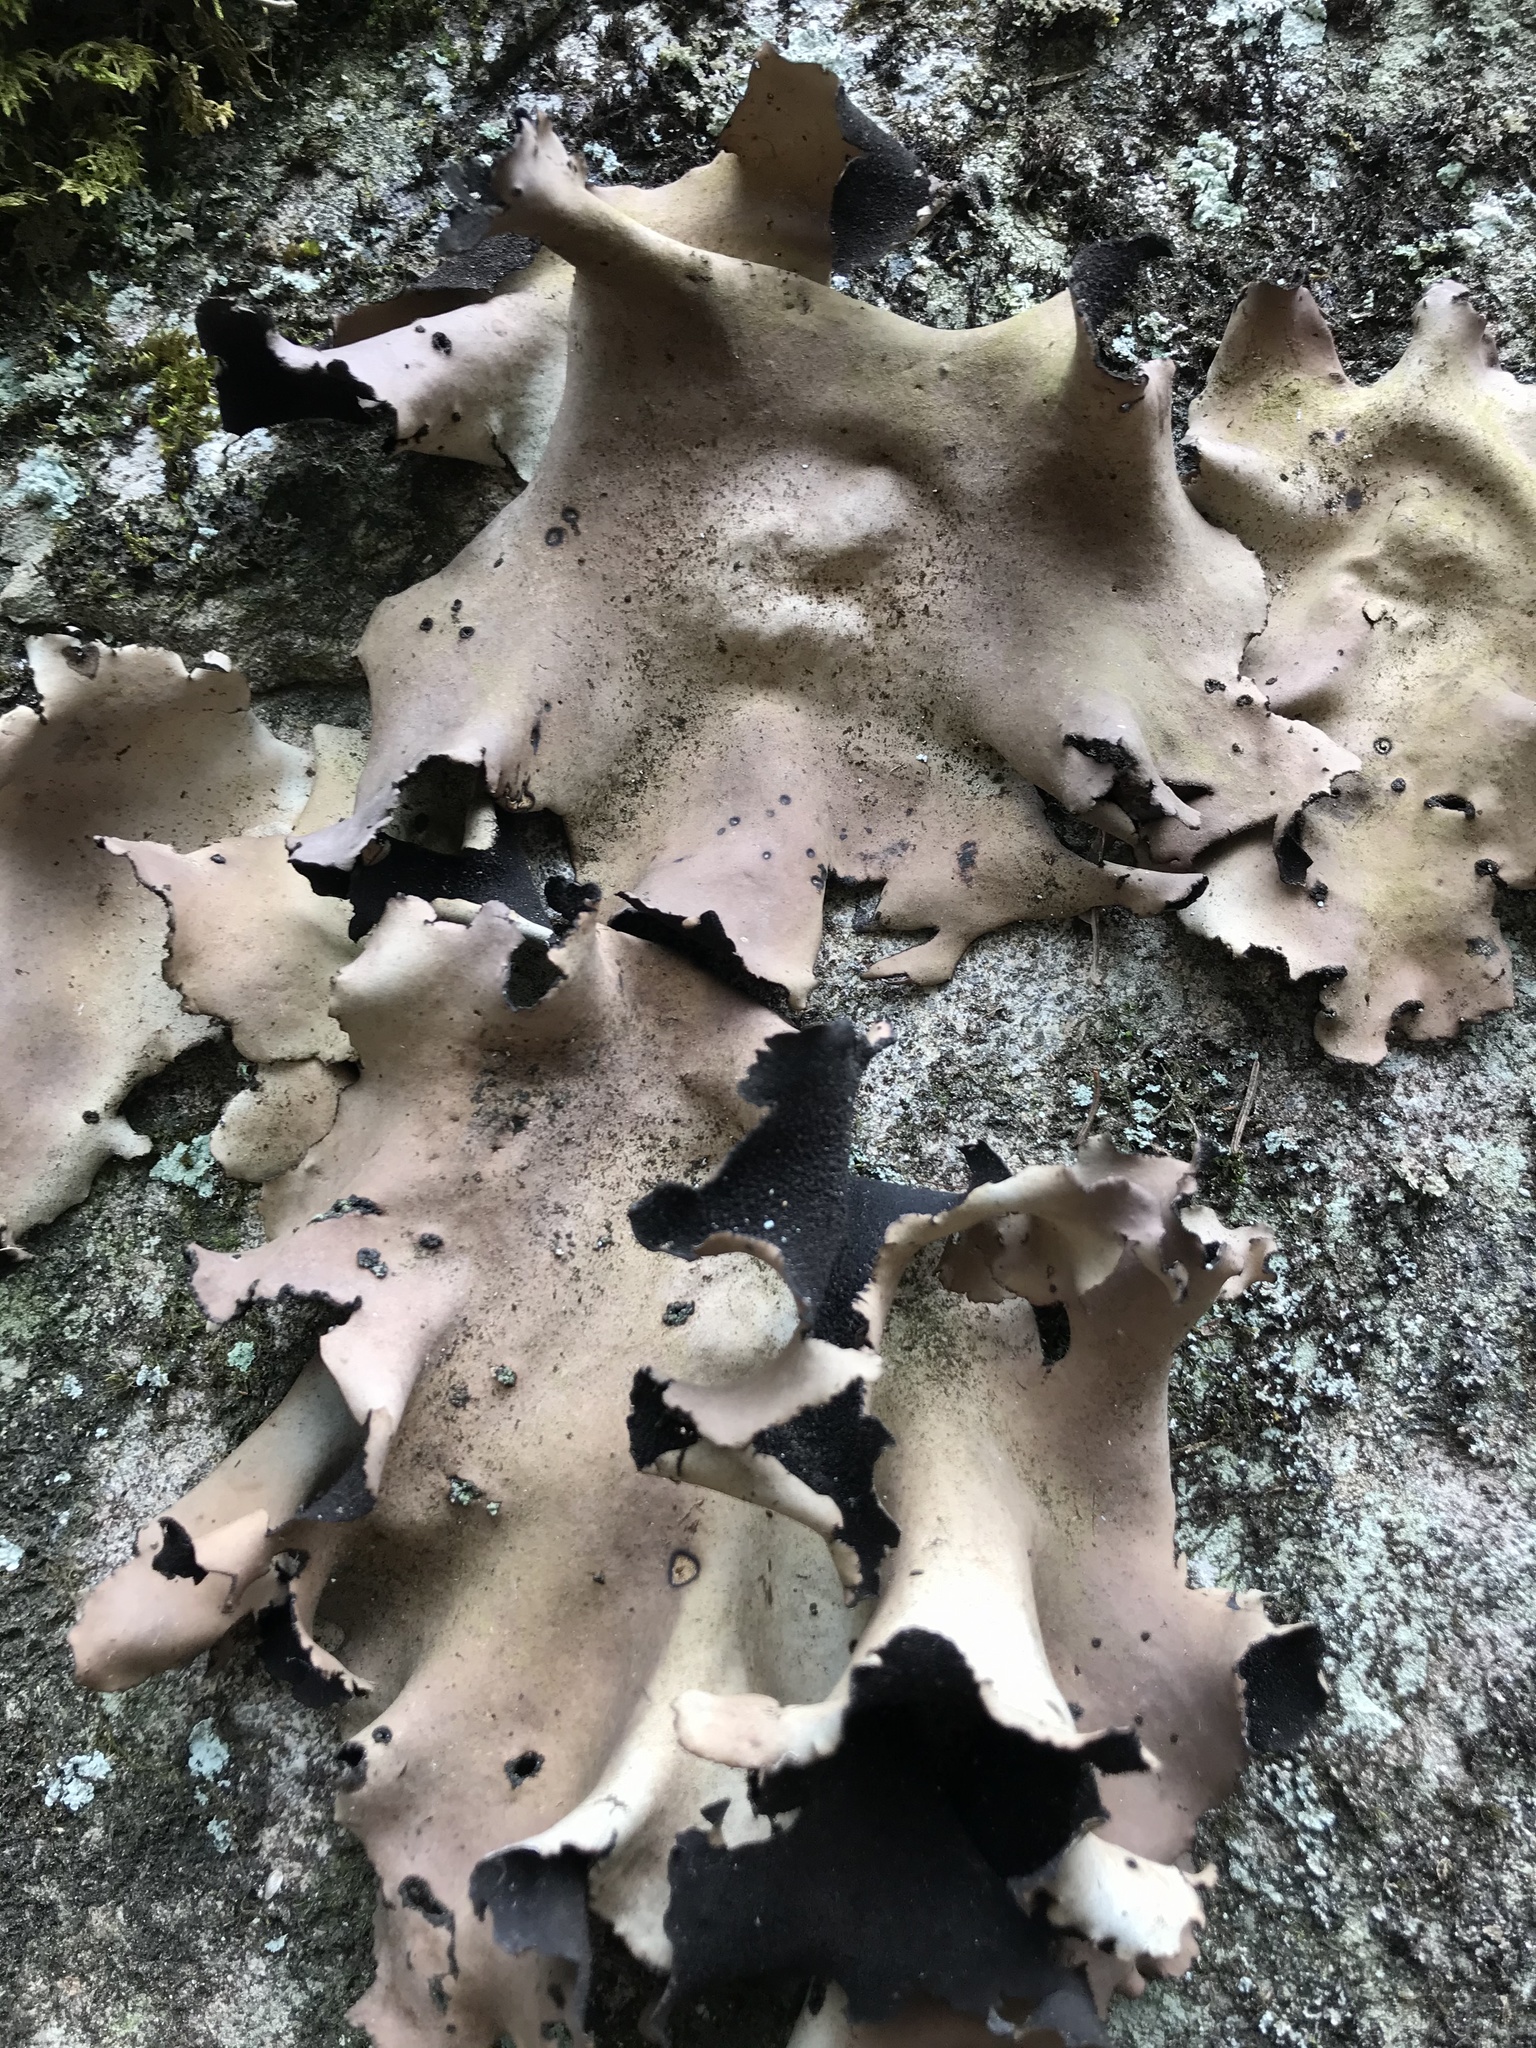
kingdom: Fungi
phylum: Ascomycota
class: Lecanoromycetes
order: Umbilicariales
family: Umbilicariaceae
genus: Umbilicaria
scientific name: Umbilicaria mammulata
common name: Smooth rock tripe
